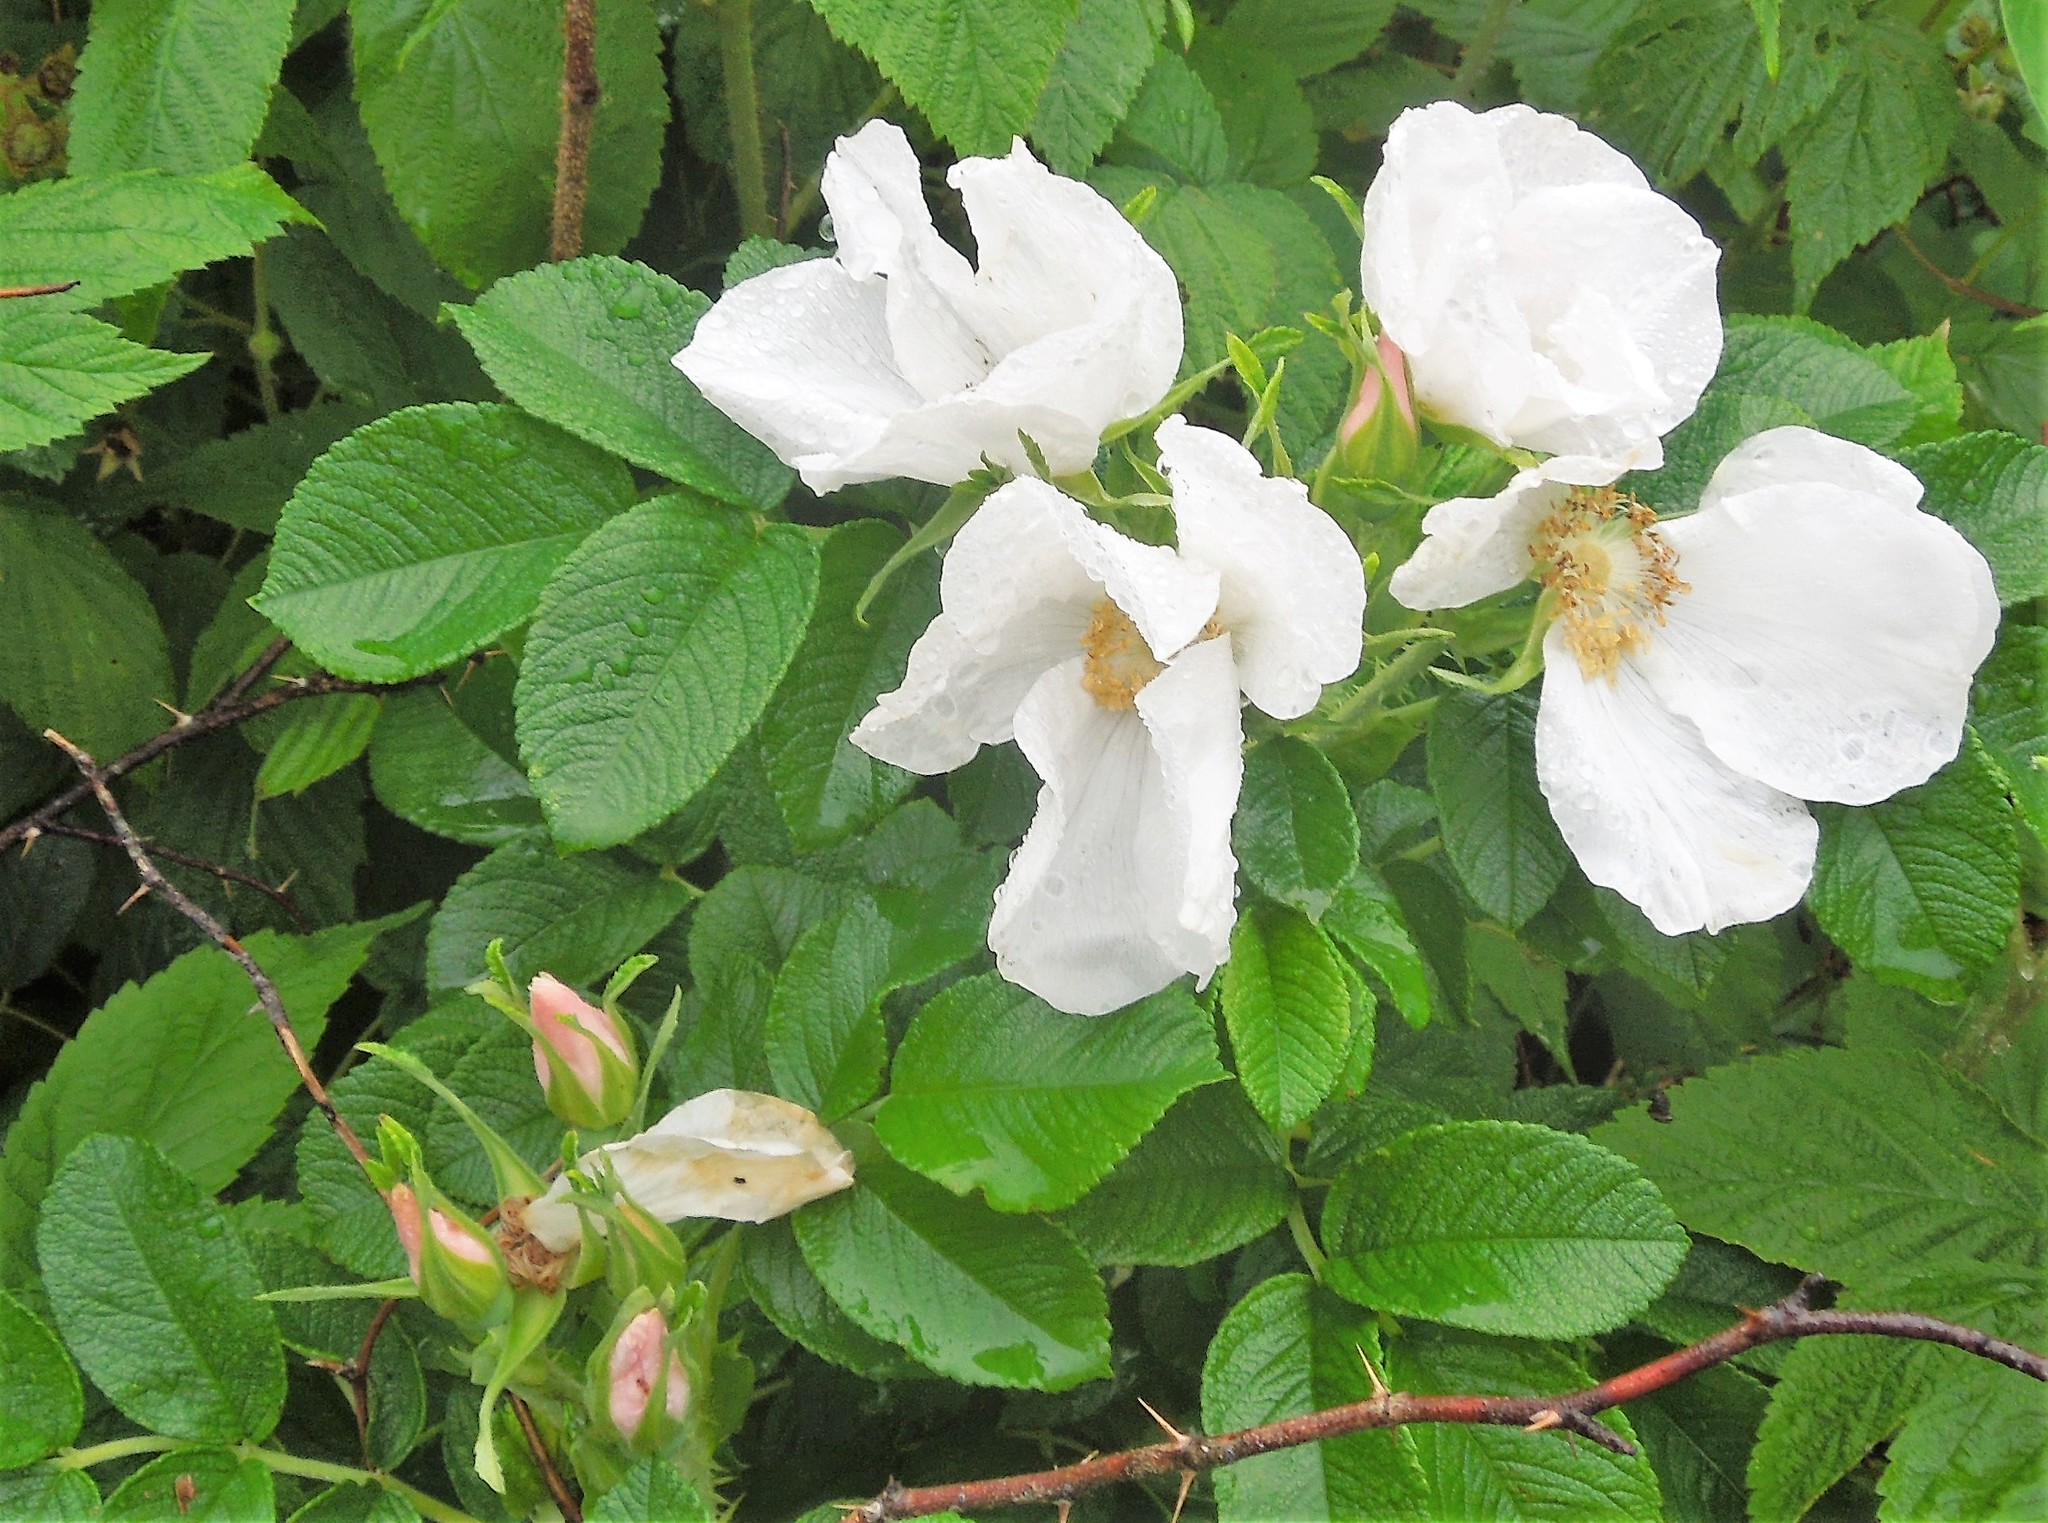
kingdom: Plantae
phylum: Tracheophyta
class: Magnoliopsida
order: Rosales
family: Rosaceae
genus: Rosa
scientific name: Rosa rugosa
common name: Japanese rose
